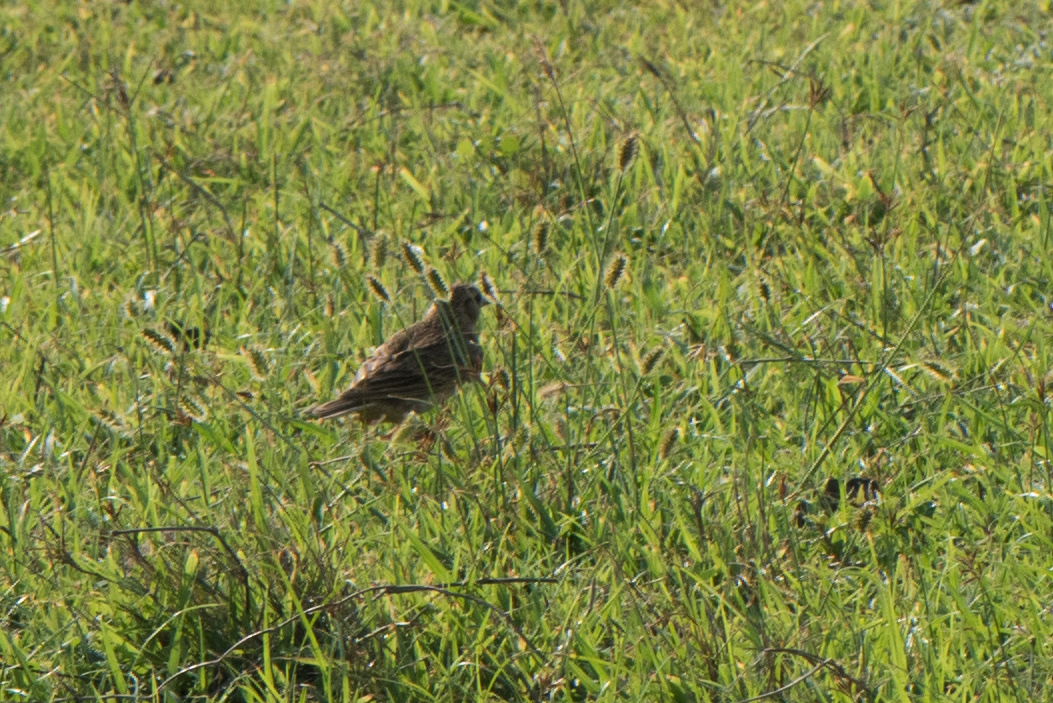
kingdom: Animalia
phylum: Chordata
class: Aves
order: Passeriformes
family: Alaudidae
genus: Alauda
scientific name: Alauda gulgula
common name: Oriental skylark
